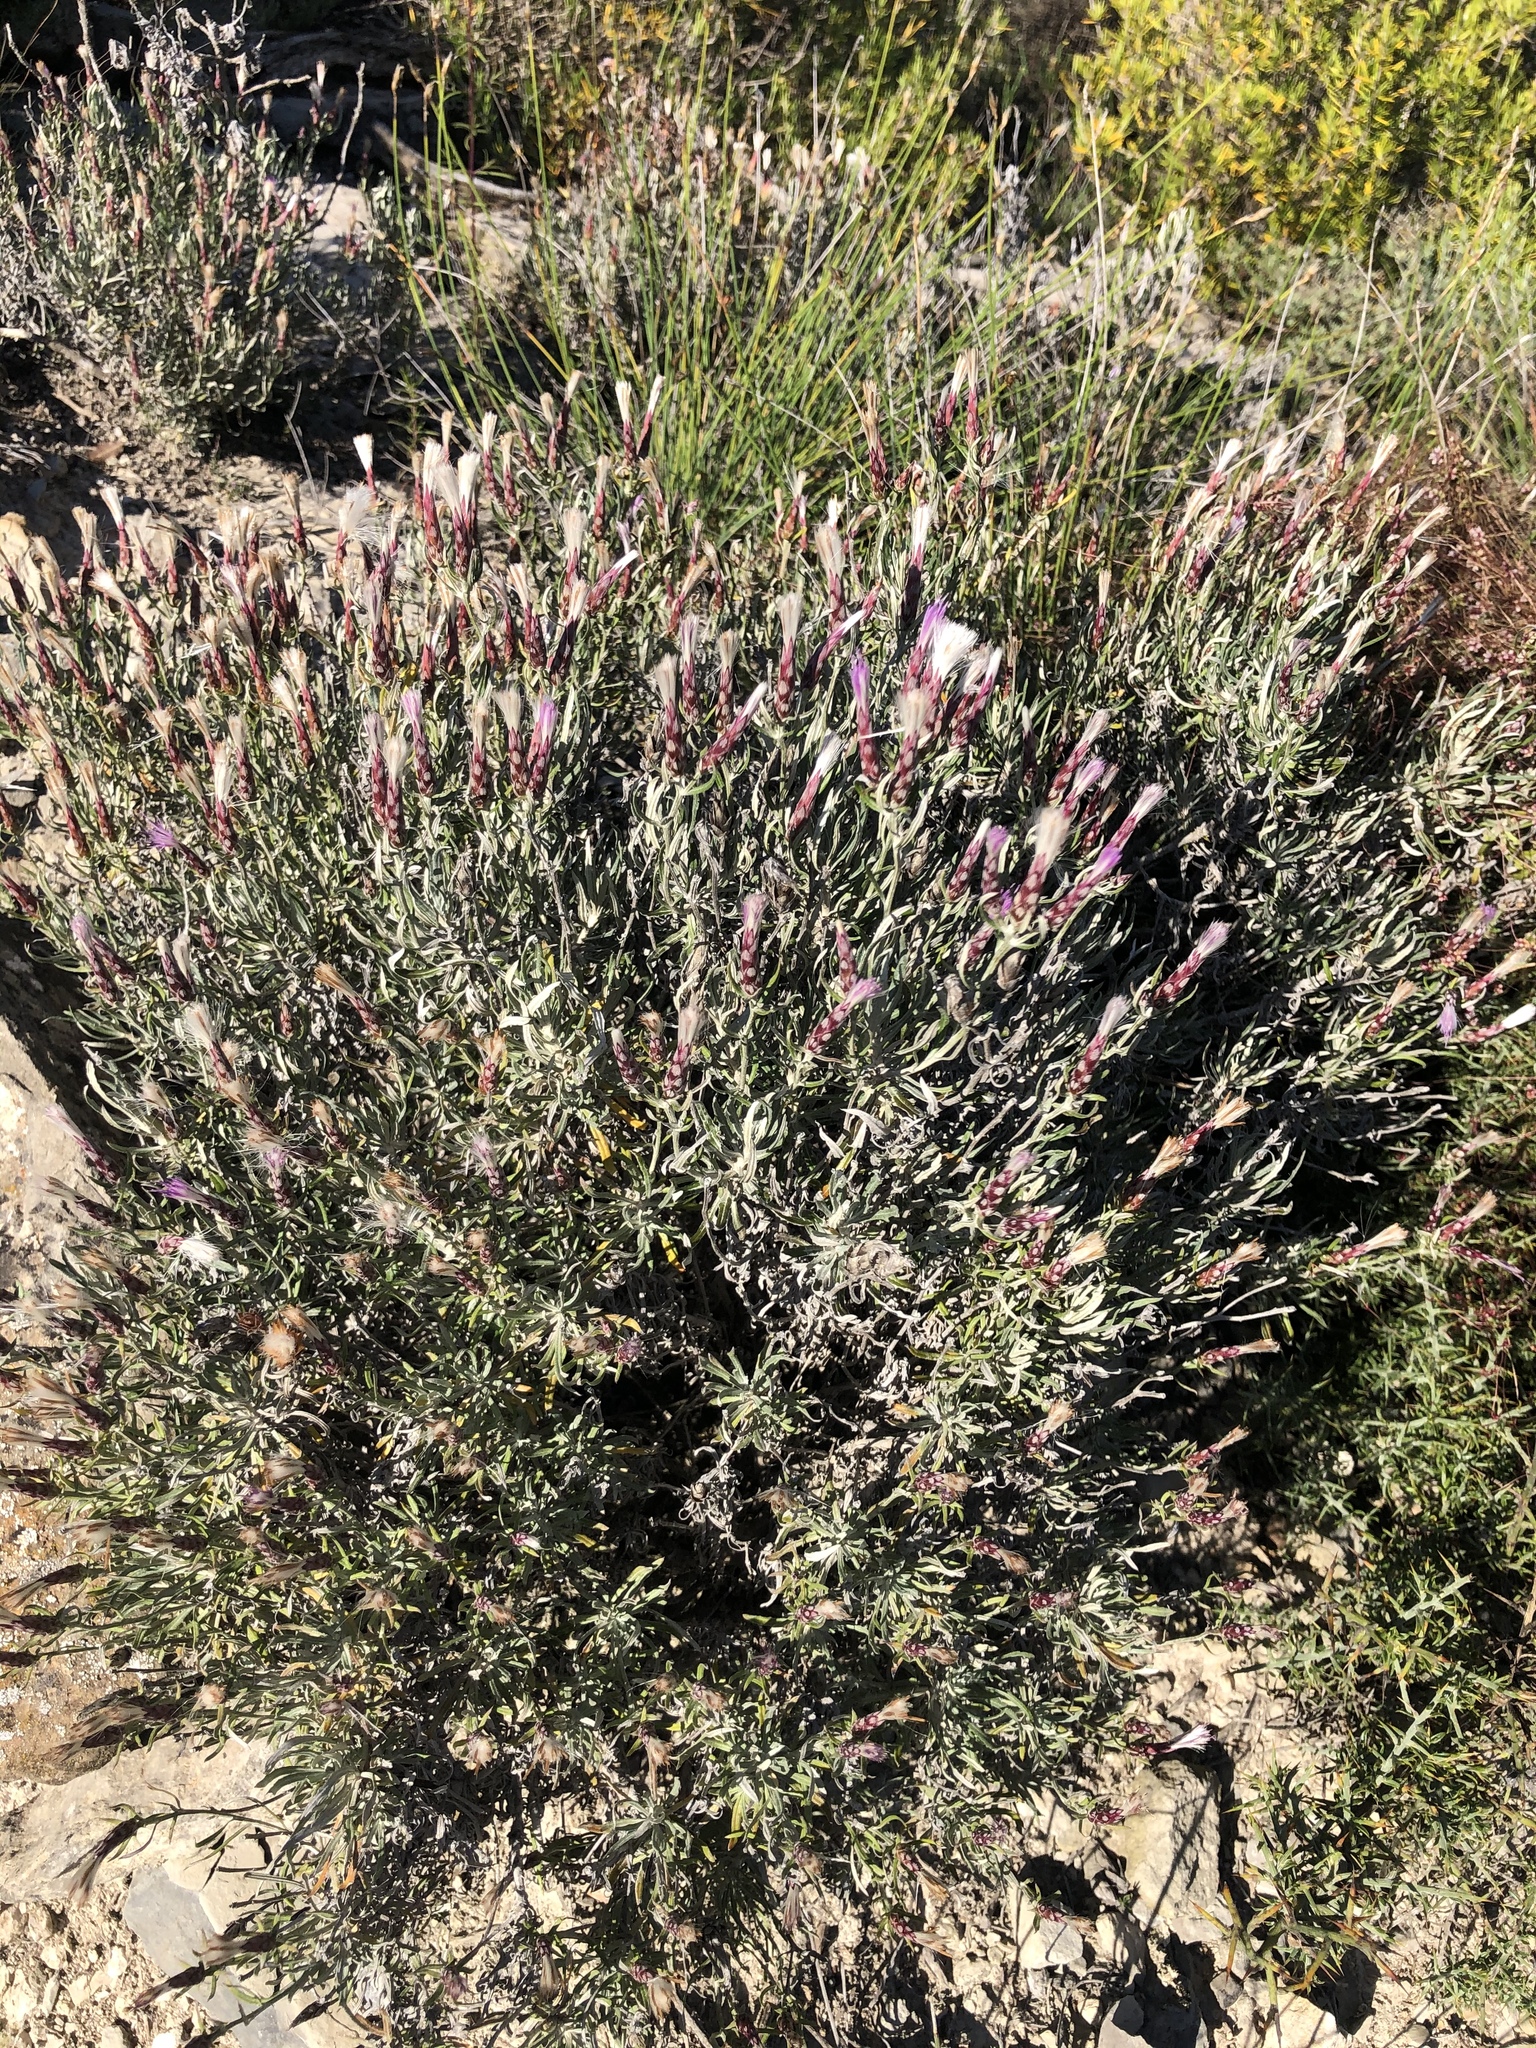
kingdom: Plantae
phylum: Tracheophyta
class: Magnoliopsida
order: Asterales
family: Asteraceae
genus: Staehelina
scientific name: Staehelina dubia
